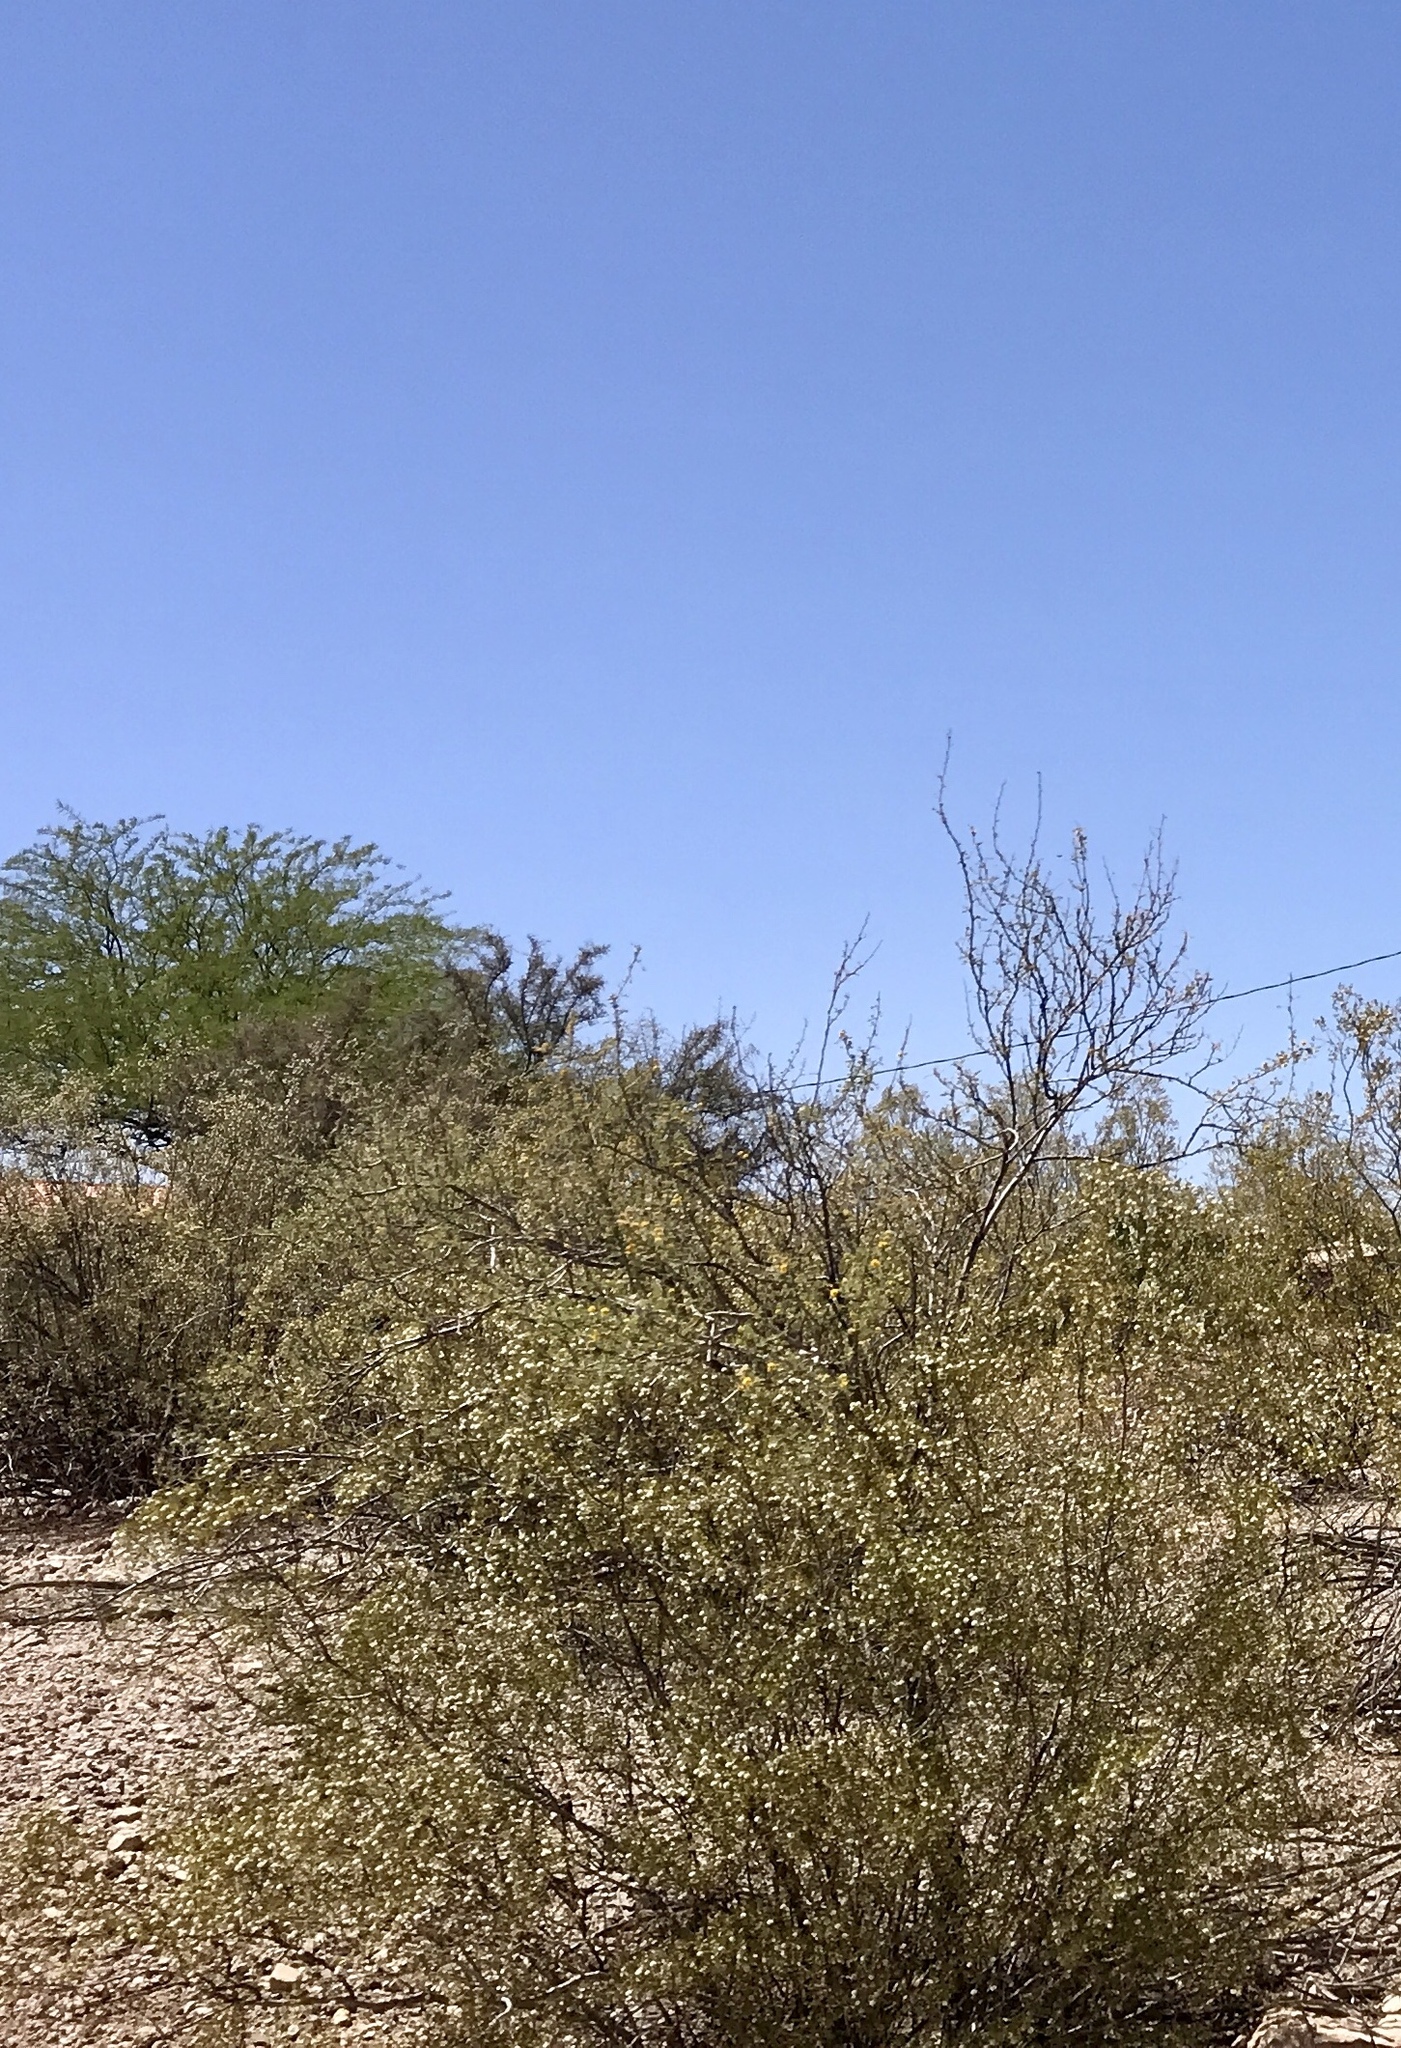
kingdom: Plantae
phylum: Tracheophyta
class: Magnoliopsida
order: Zygophyllales
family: Zygophyllaceae
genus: Larrea
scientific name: Larrea tridentata
